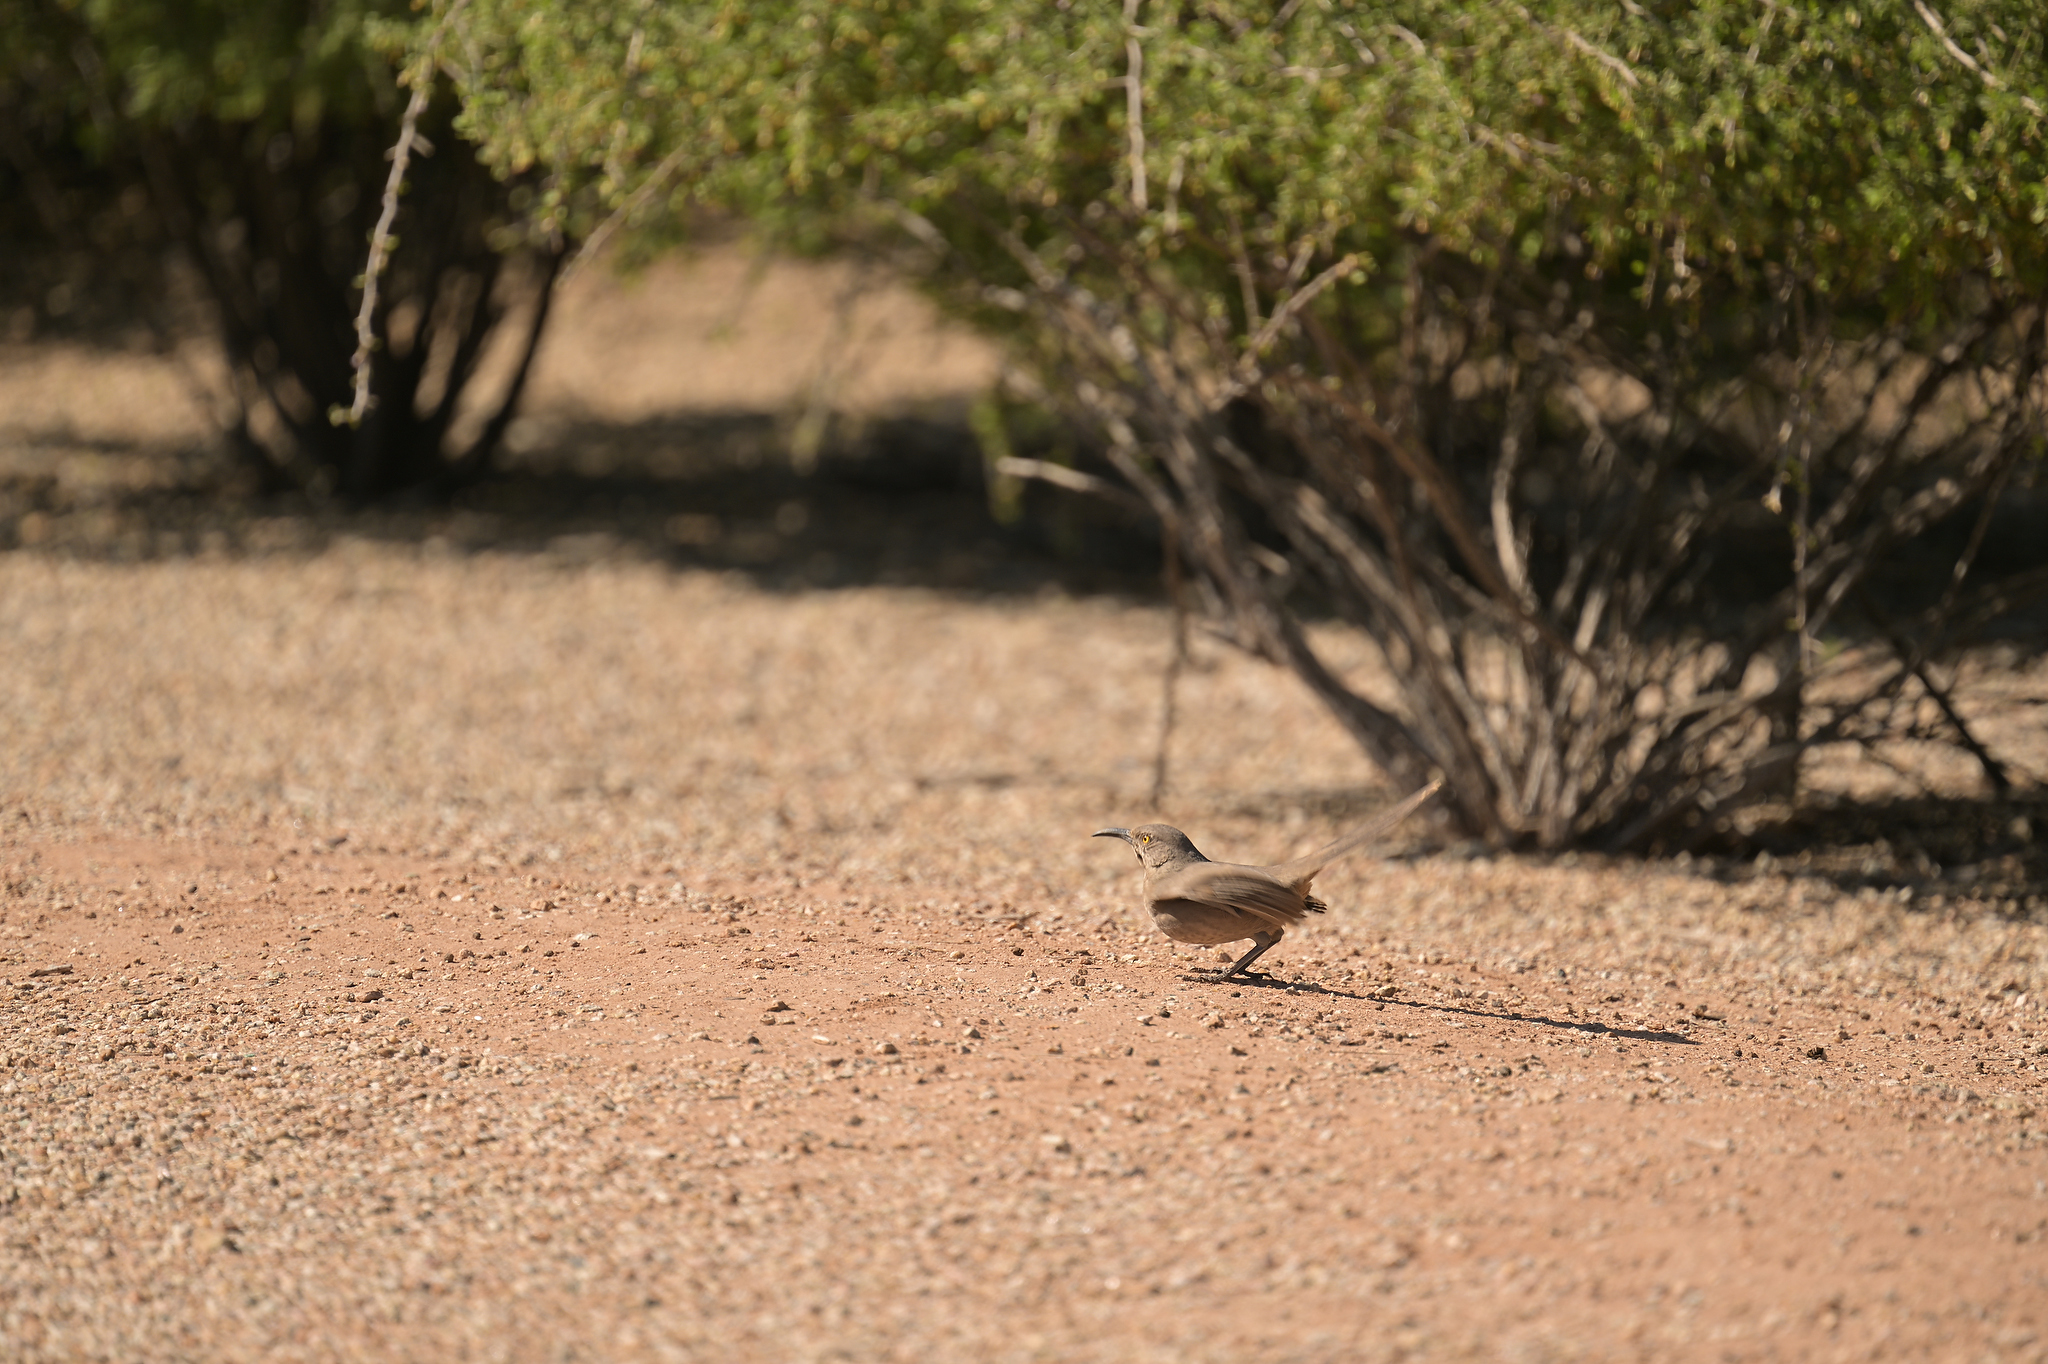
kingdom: Animalia
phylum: Chordata
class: Aves
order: Passeriformes
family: Mimidae
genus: Toxostoma
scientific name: Toxostoma curvirostre
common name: Curve-billed thrasher
